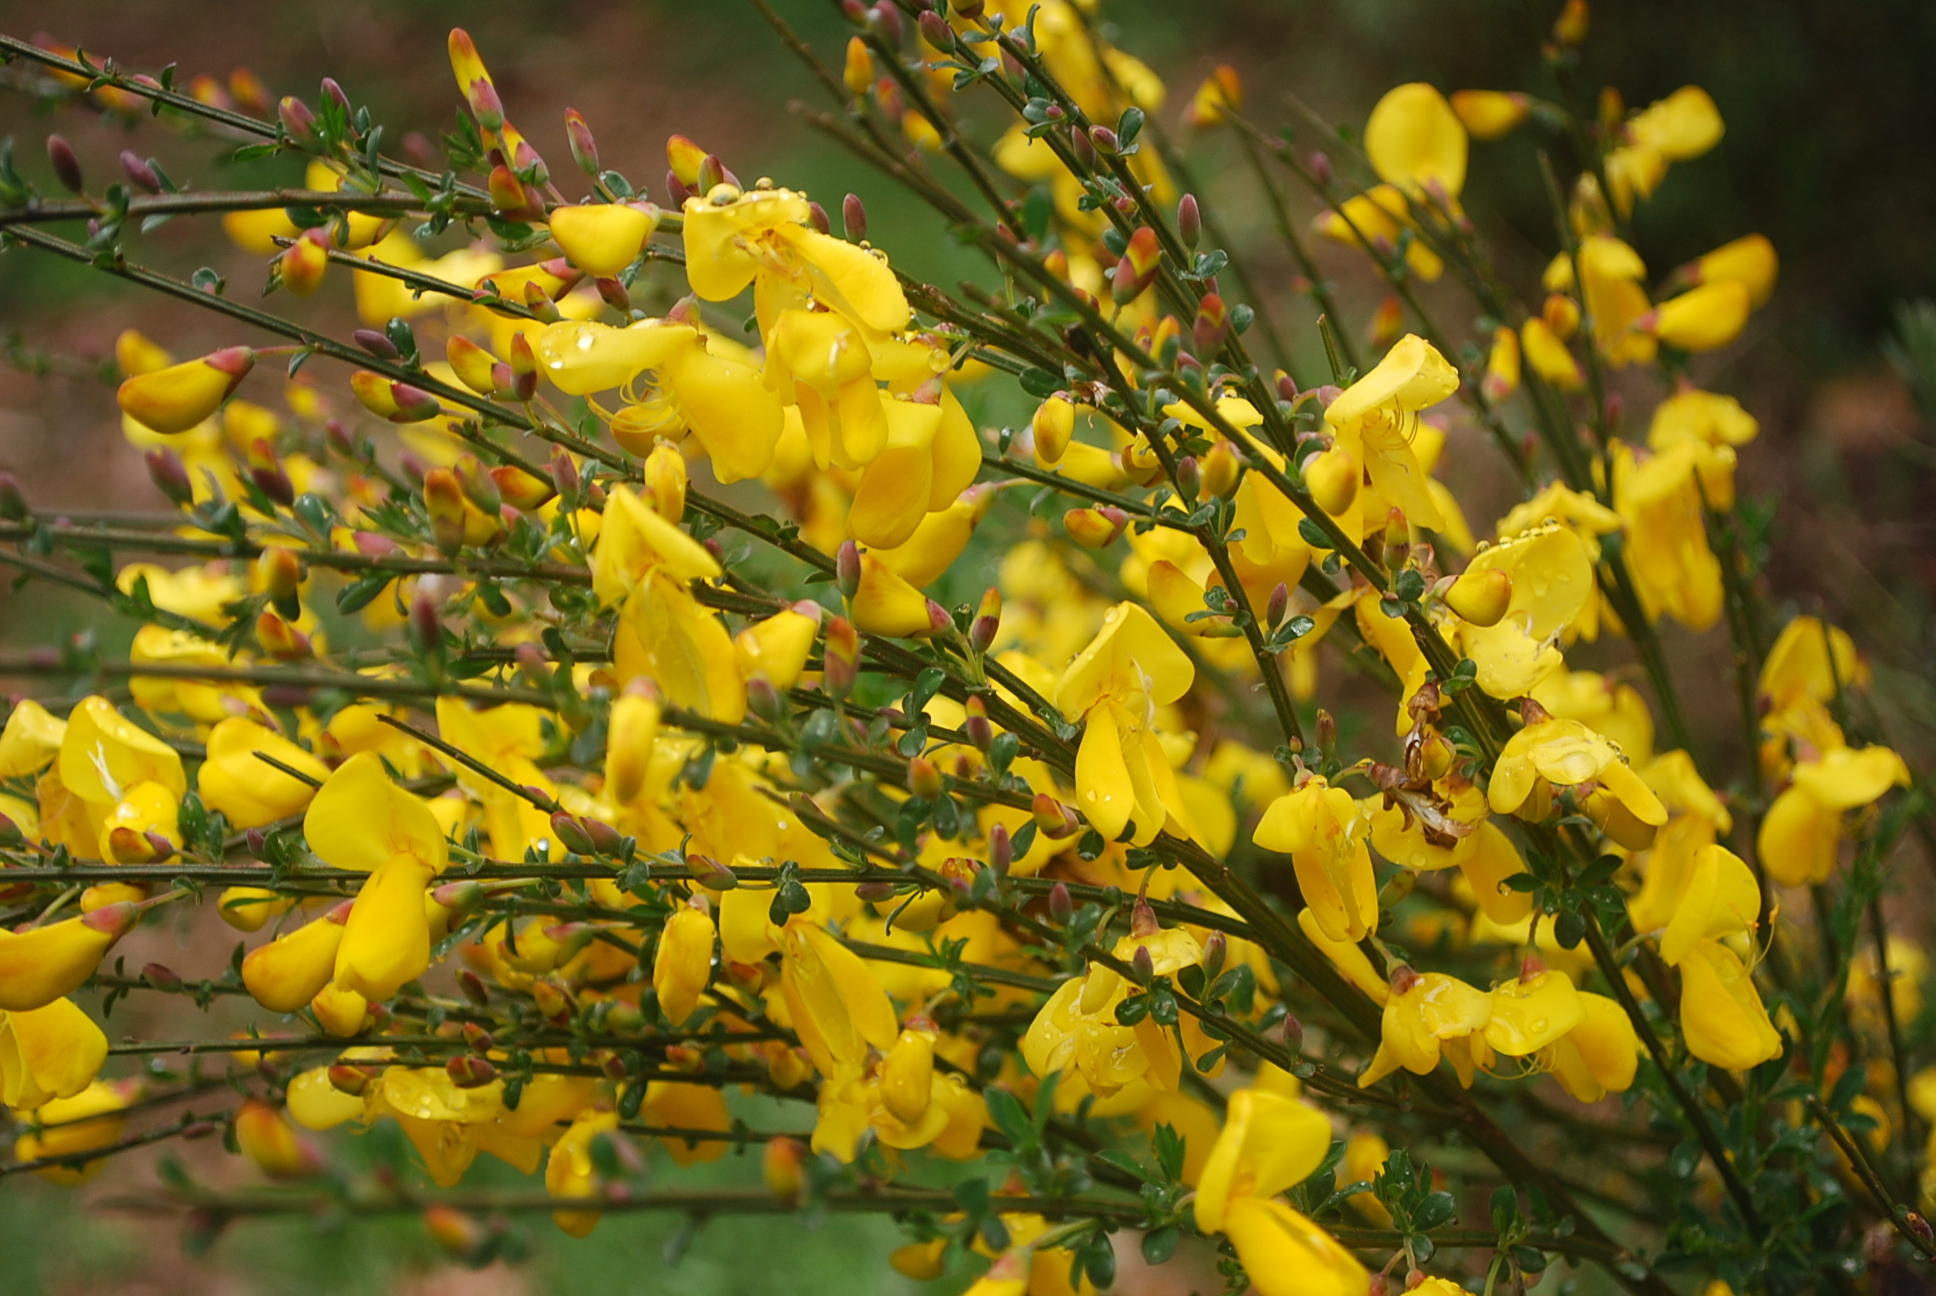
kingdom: Plantae
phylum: Tracheophyta
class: Magnoliopsida
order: Fabales
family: Fabaceae
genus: Cytisus
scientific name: Cytisus scoparius
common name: Scotch broom
